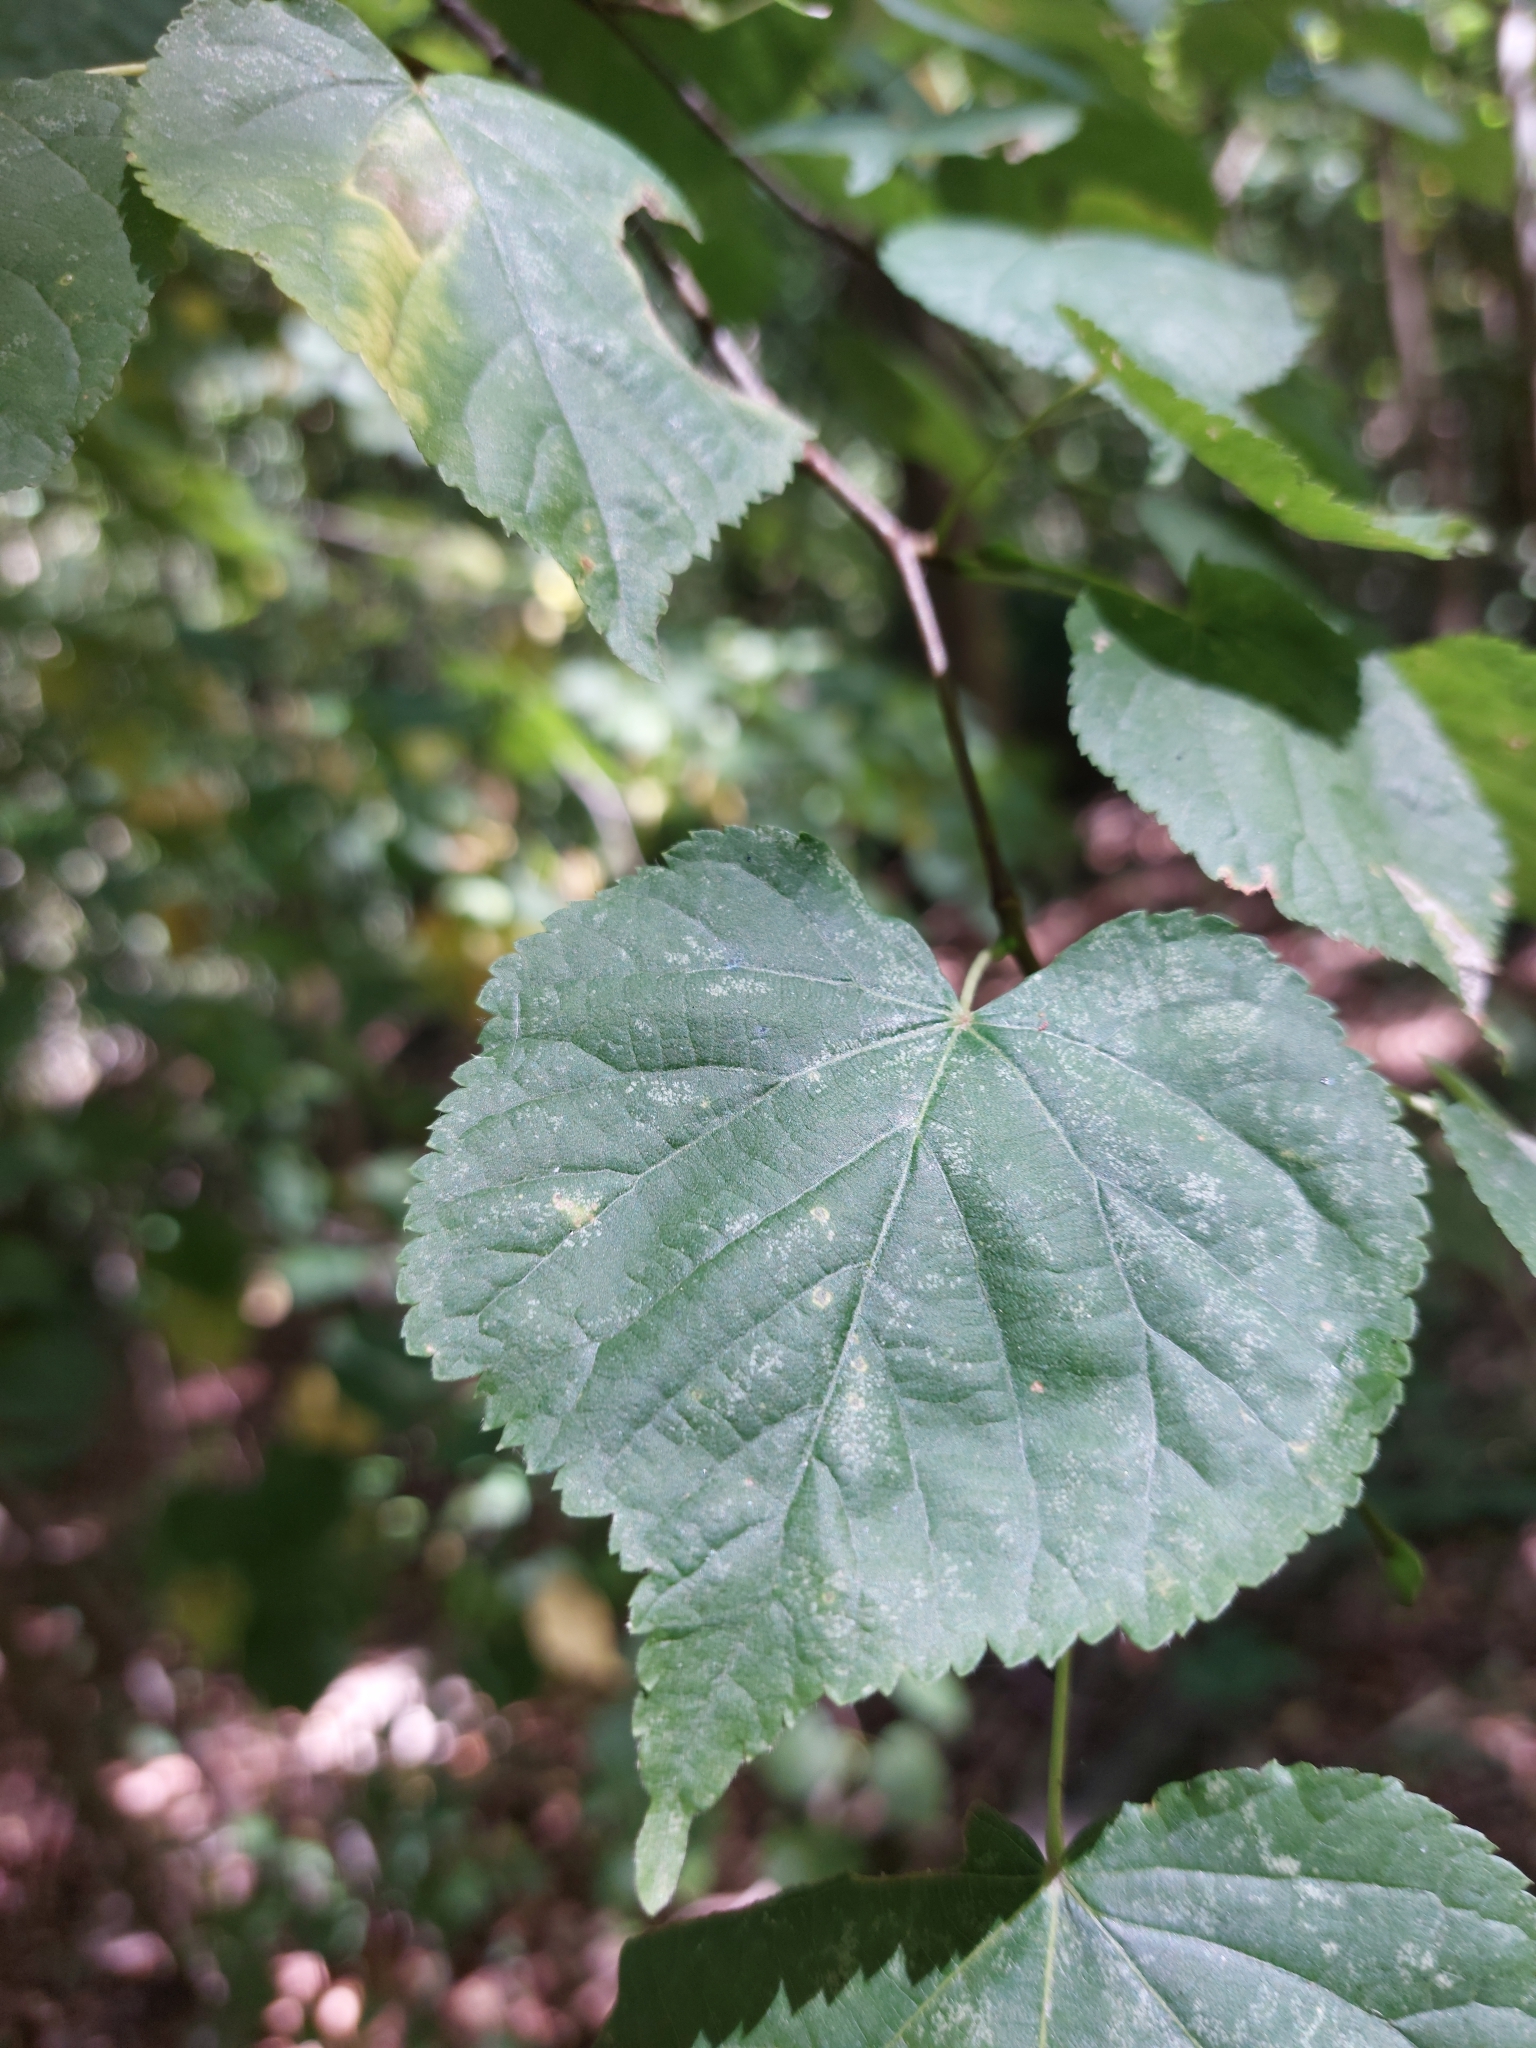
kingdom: Plantae
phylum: Tracheophyta
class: Magnoliopsida
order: Malvales
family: Malvaceae
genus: Tilia
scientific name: Tilia cordata
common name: Small-leaved lime
